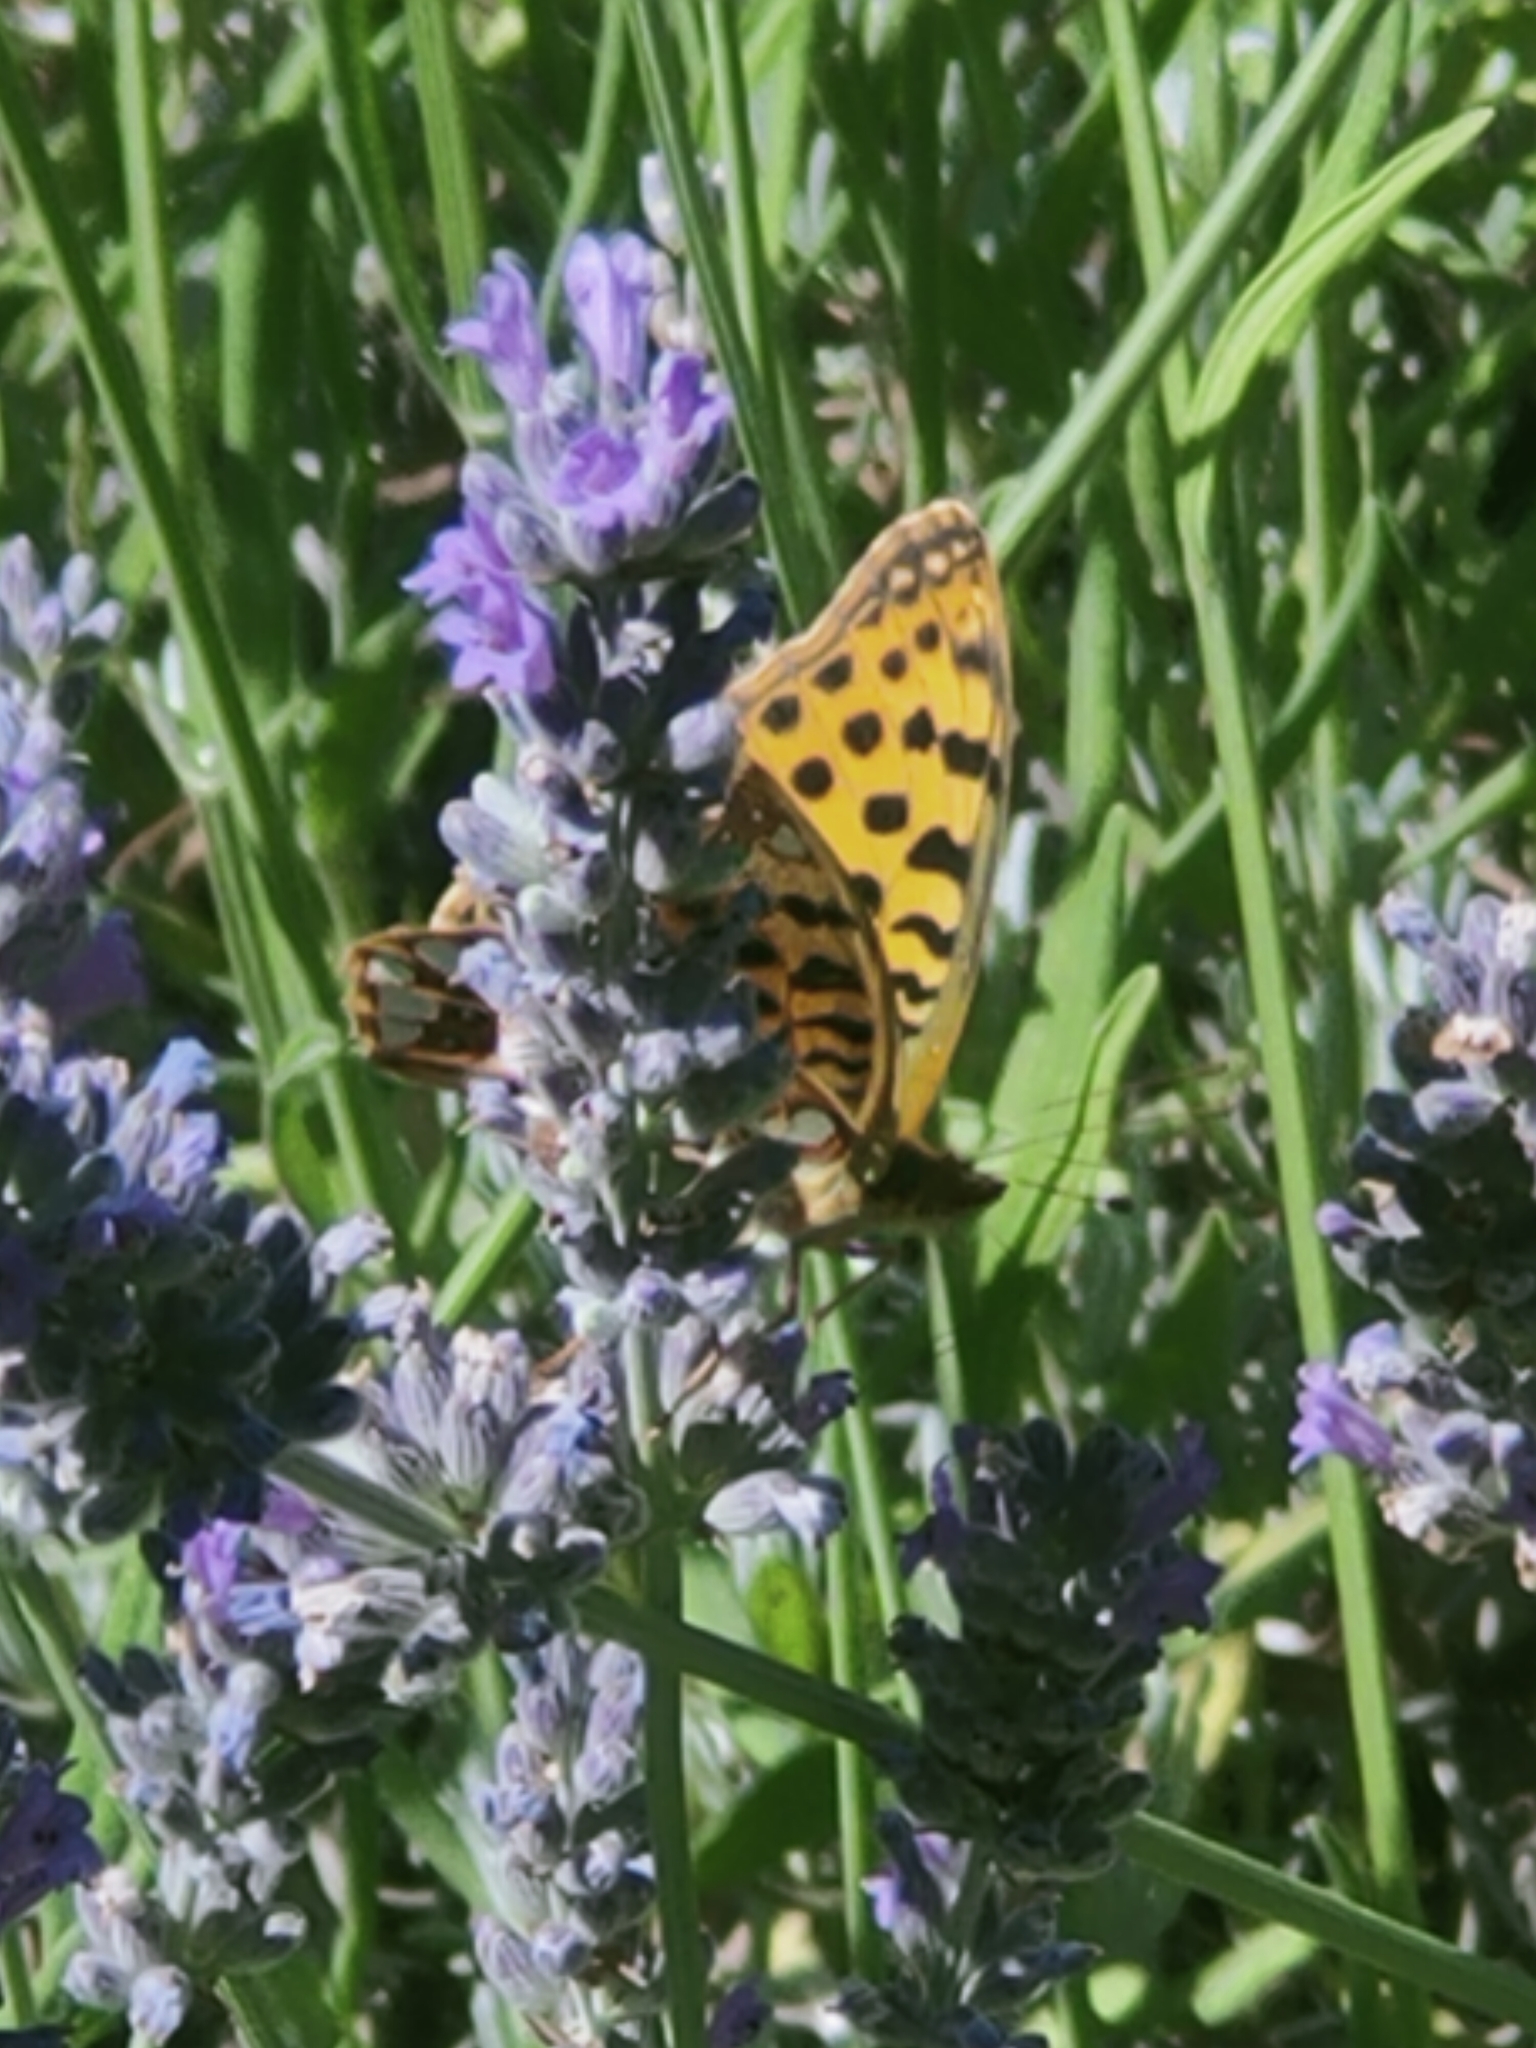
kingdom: Animalia
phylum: Arthropoda
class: Insecta
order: Lepidoptera
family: Nymphalidae
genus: Issoria
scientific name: Issoria lathonia
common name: Queen of spain fritillary
